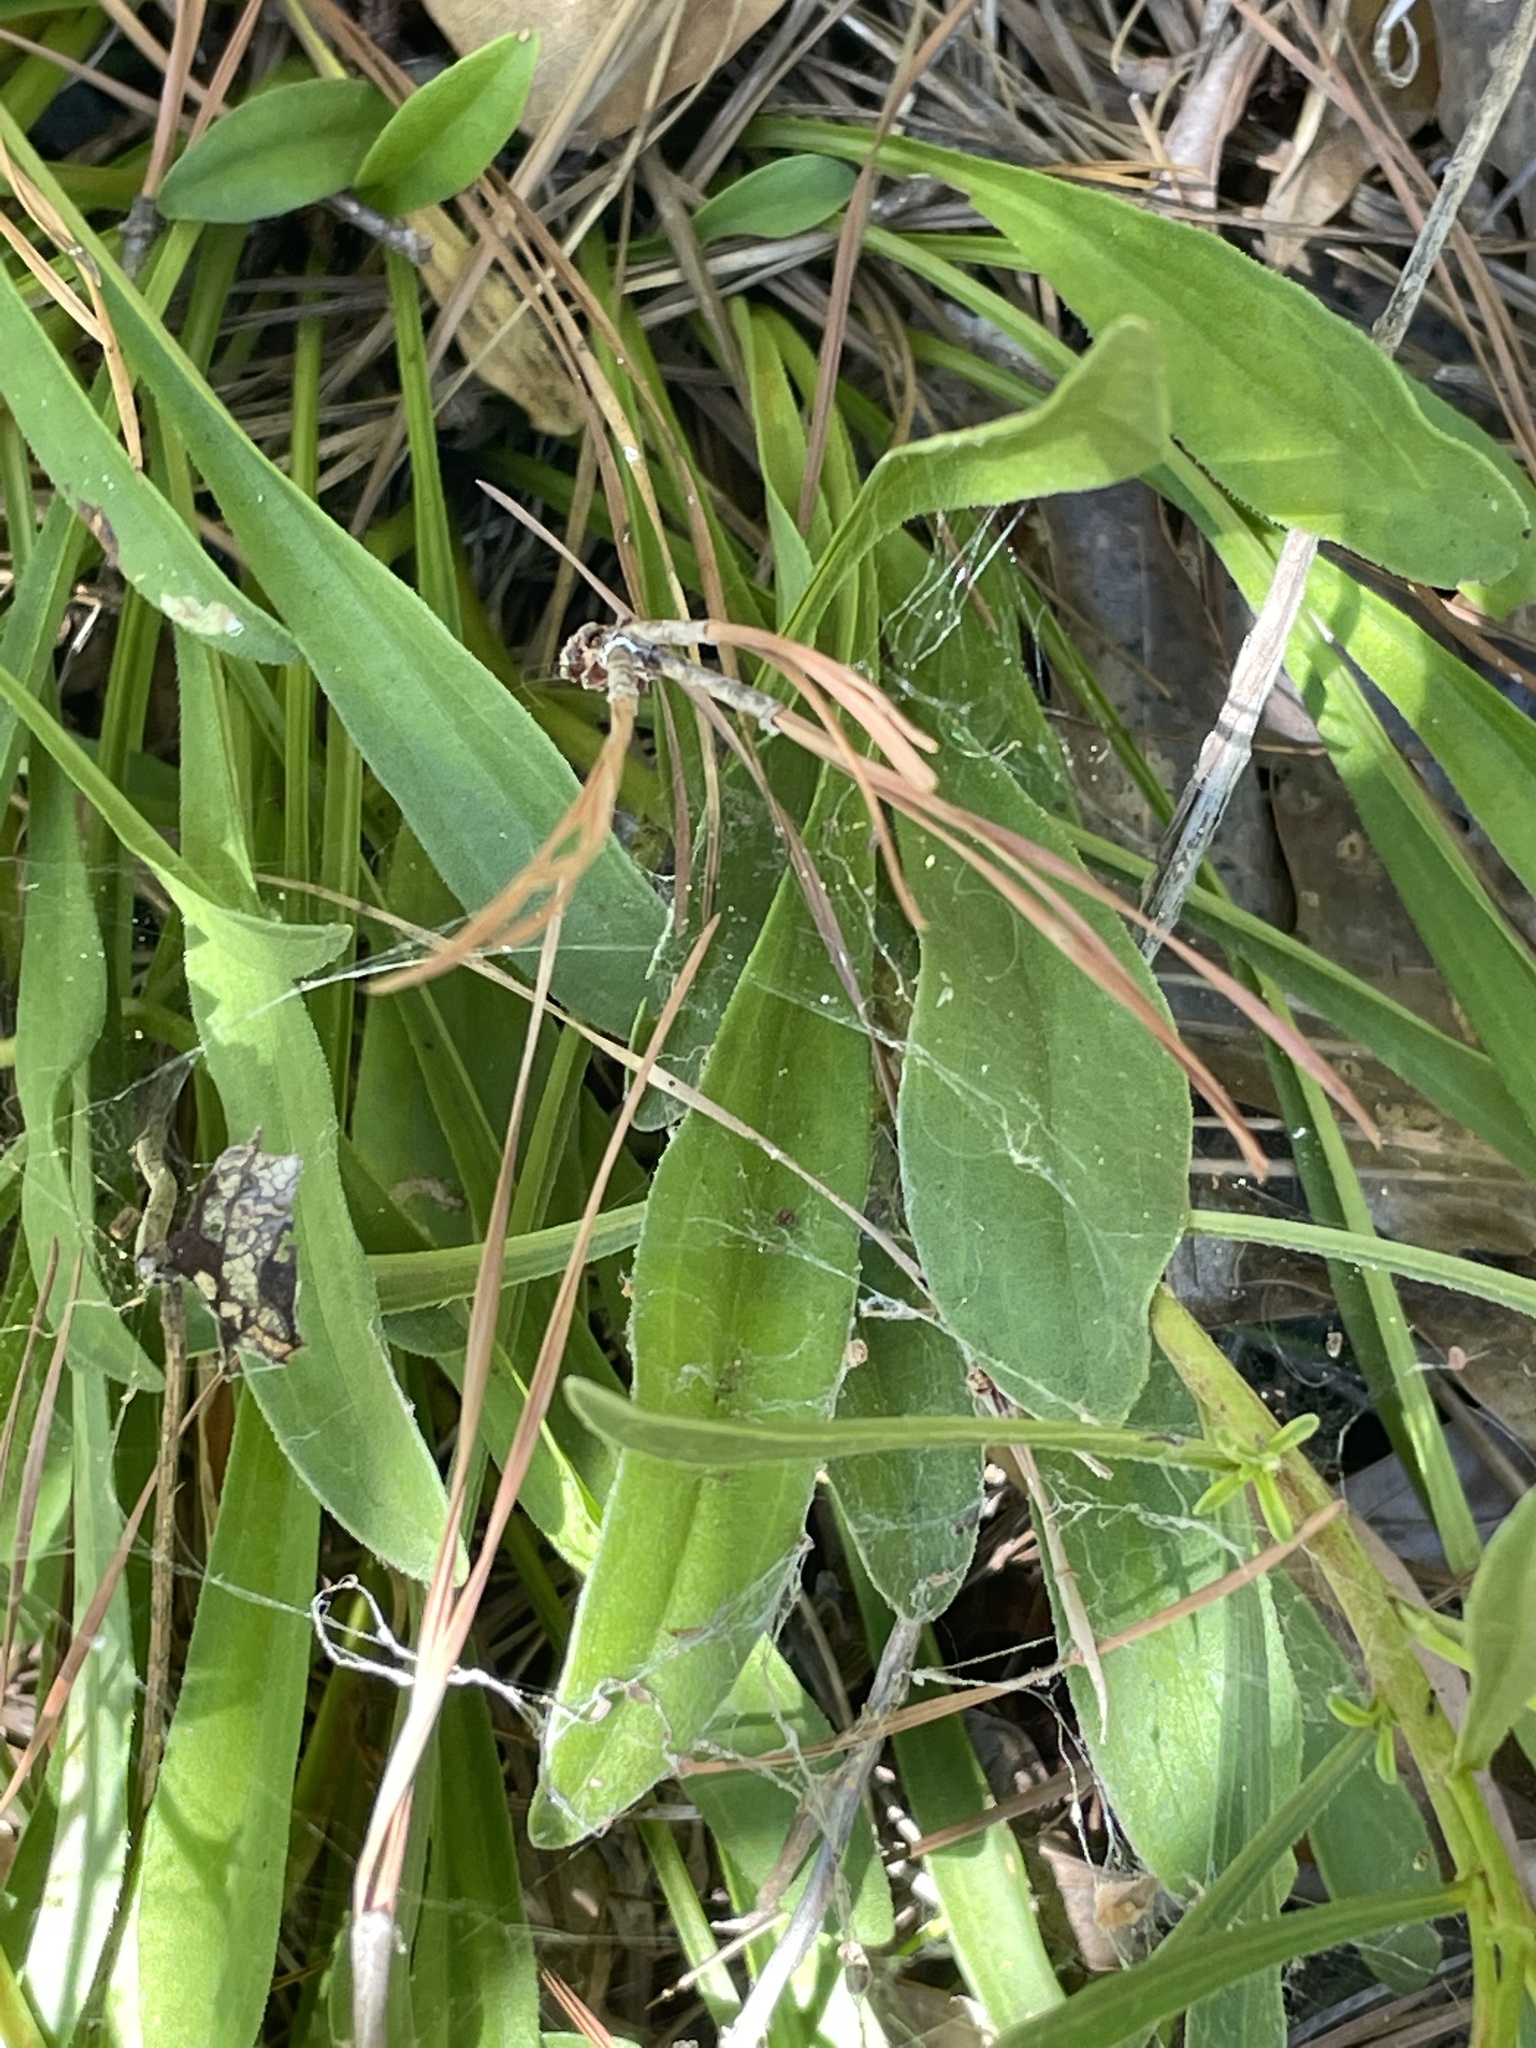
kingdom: Plantae
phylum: Tracheophyta
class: Magnoliopsida
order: Asterales
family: Asteraceae
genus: Carphephorus
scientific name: Carphephorus bellidifolius
